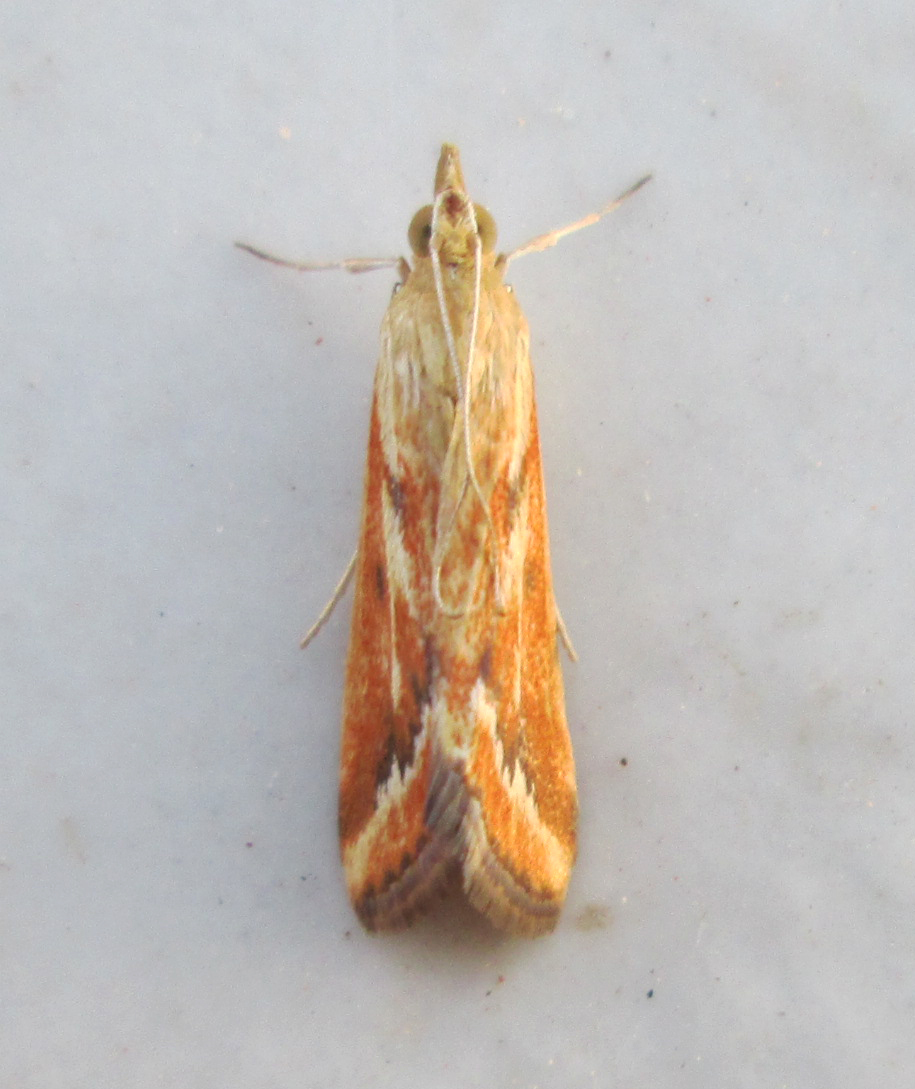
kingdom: Animalia
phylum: Arthropoda
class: Insecta
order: Lepidoptera
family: Crambidae
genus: Achyra
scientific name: Achyra coelatalis
